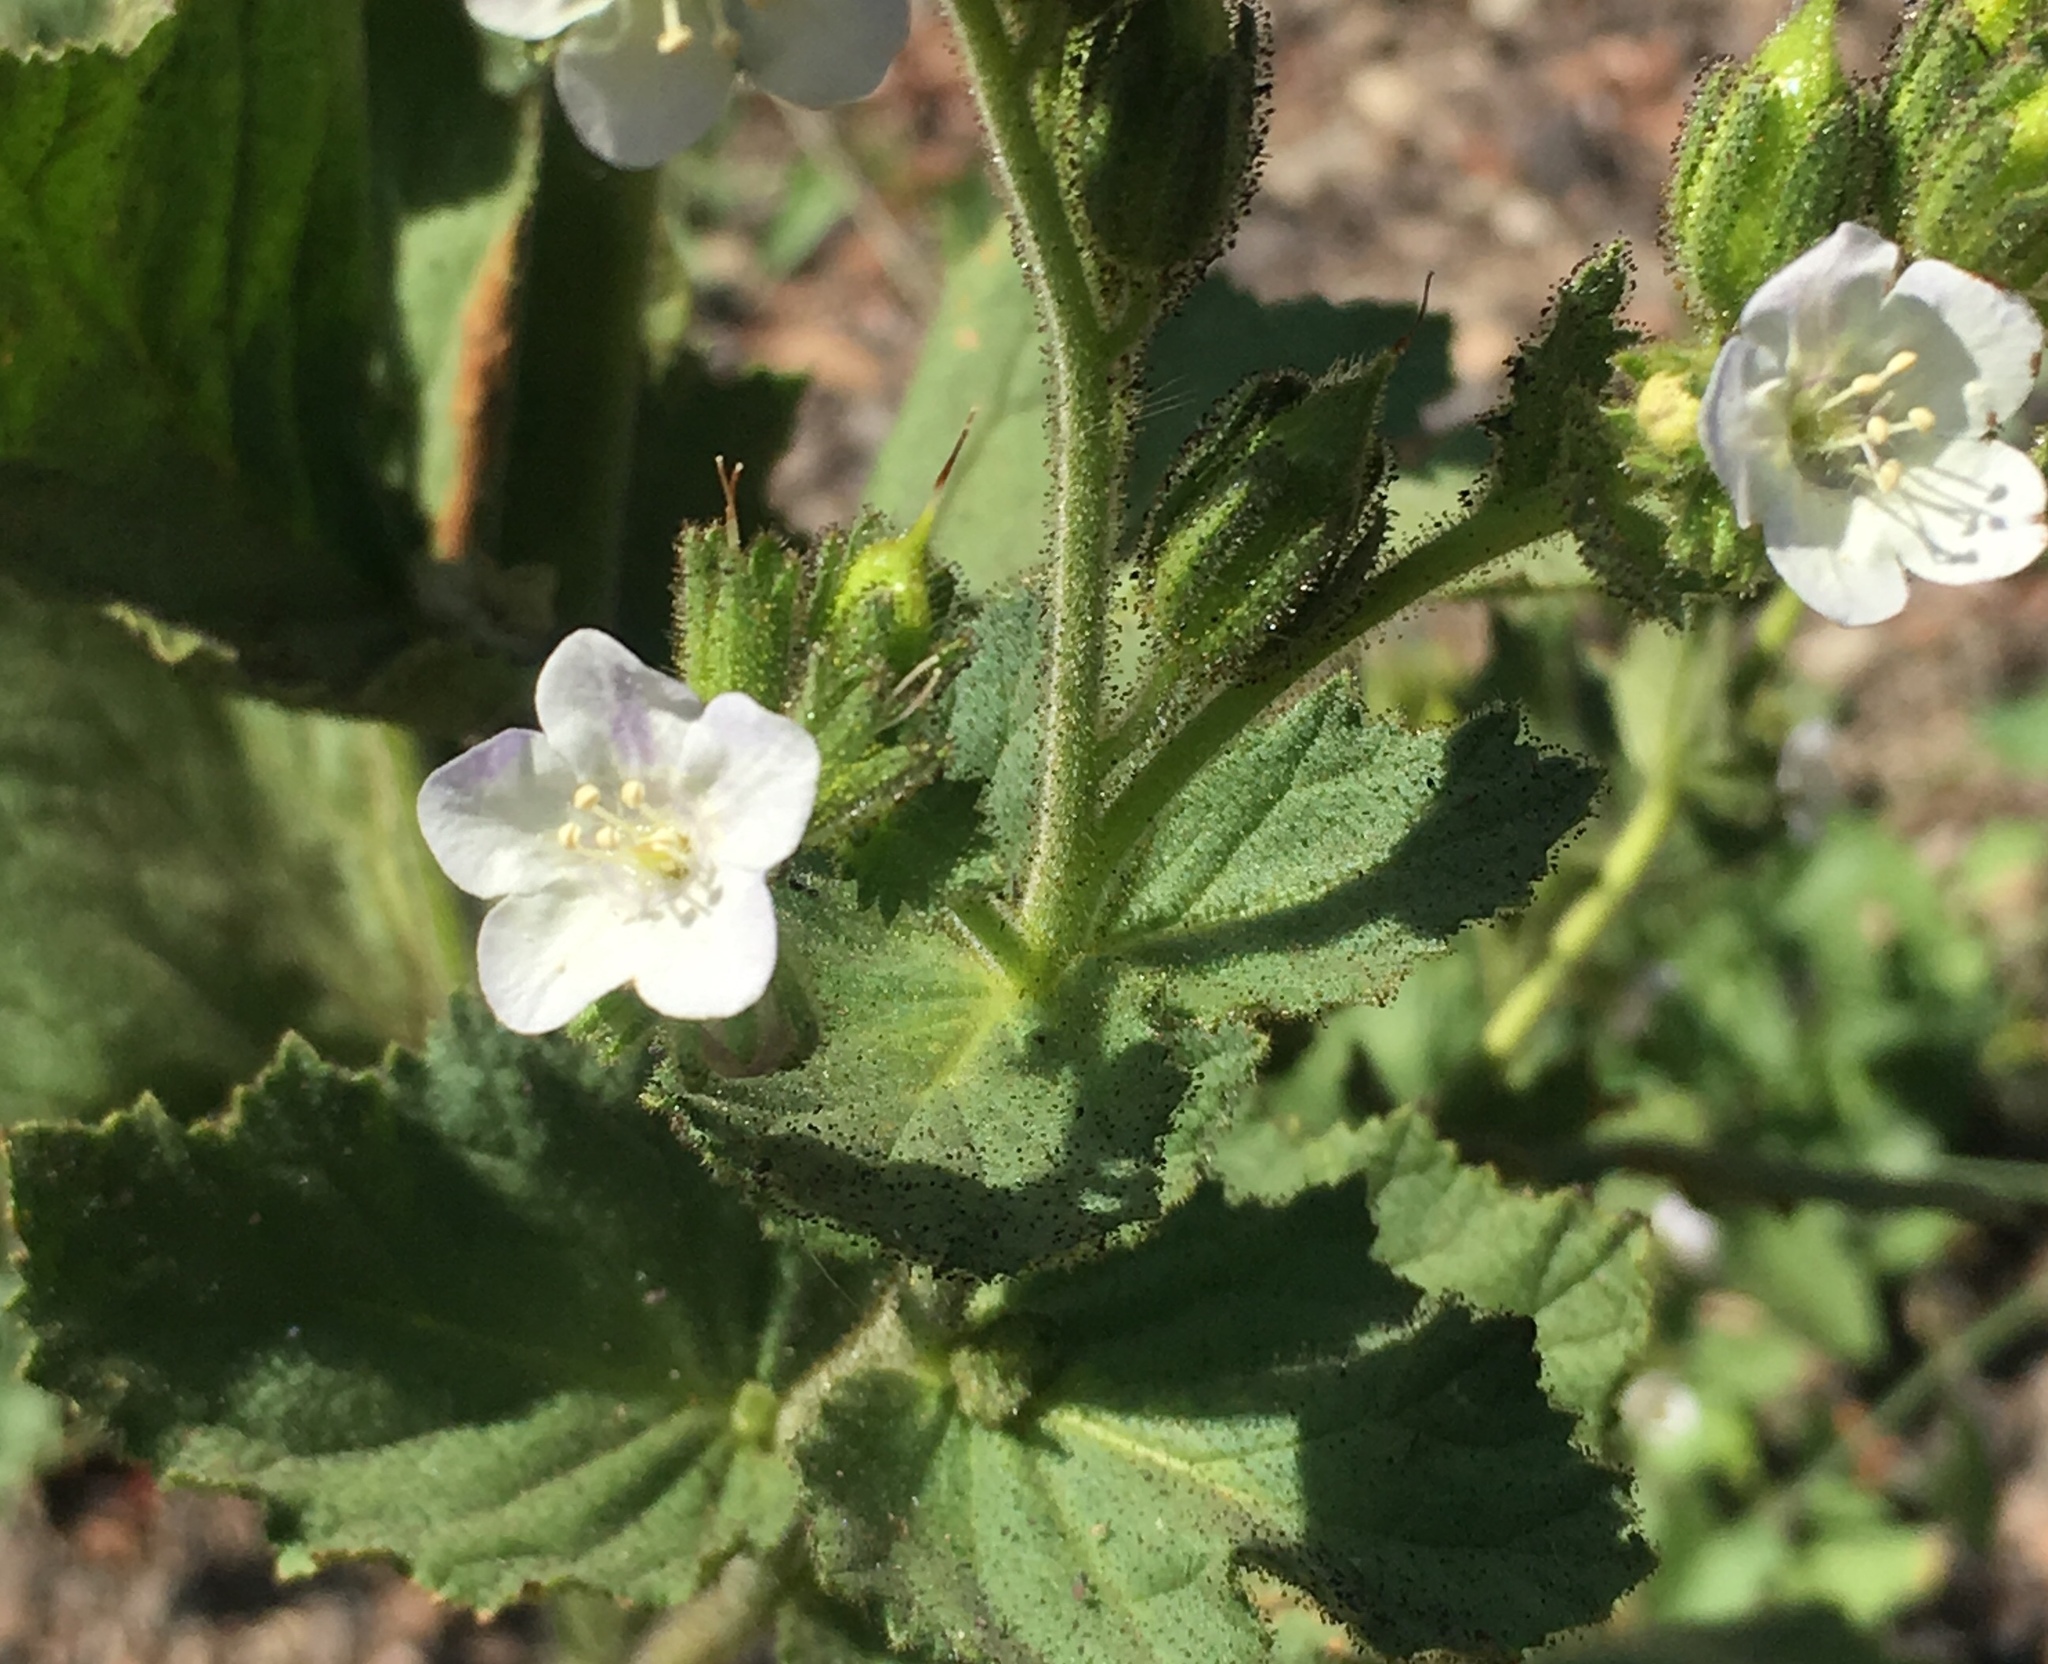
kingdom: Plantae
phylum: Tracheophyta
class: Magnoliopsida
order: Boraginales
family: Hydrophyllaceae
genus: Phacelia
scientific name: Phacelia viscida
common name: Sticky phacelia
